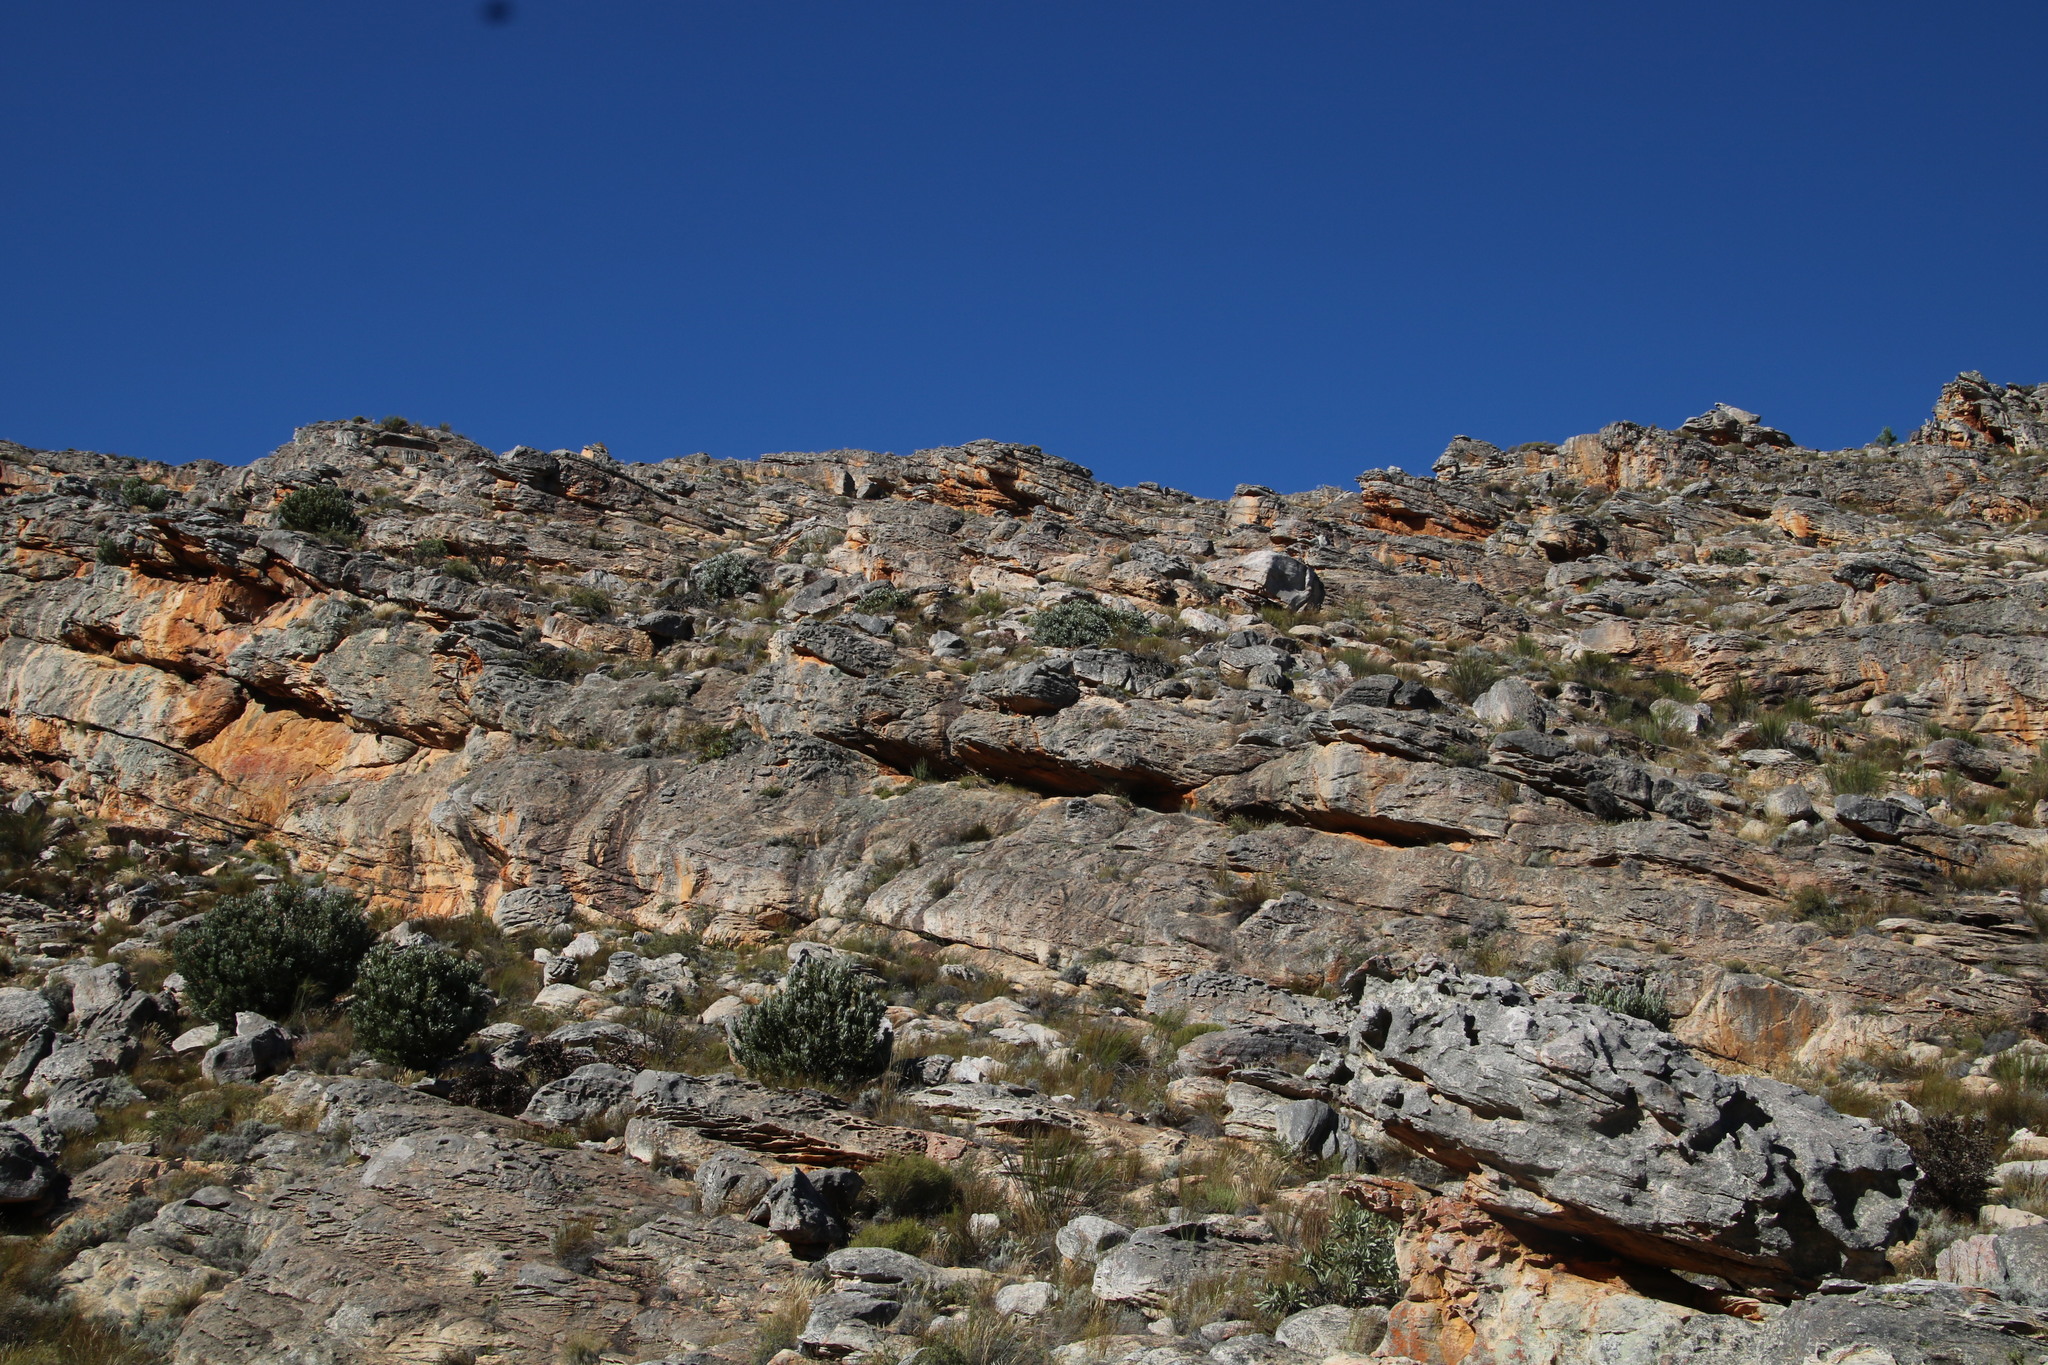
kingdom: Plantae
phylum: Tracheophyta
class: Magnoliopsida
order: Proteales
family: Proteaceae
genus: Protea
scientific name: Protea laurifolia
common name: Grey-leaf sugarbsh
